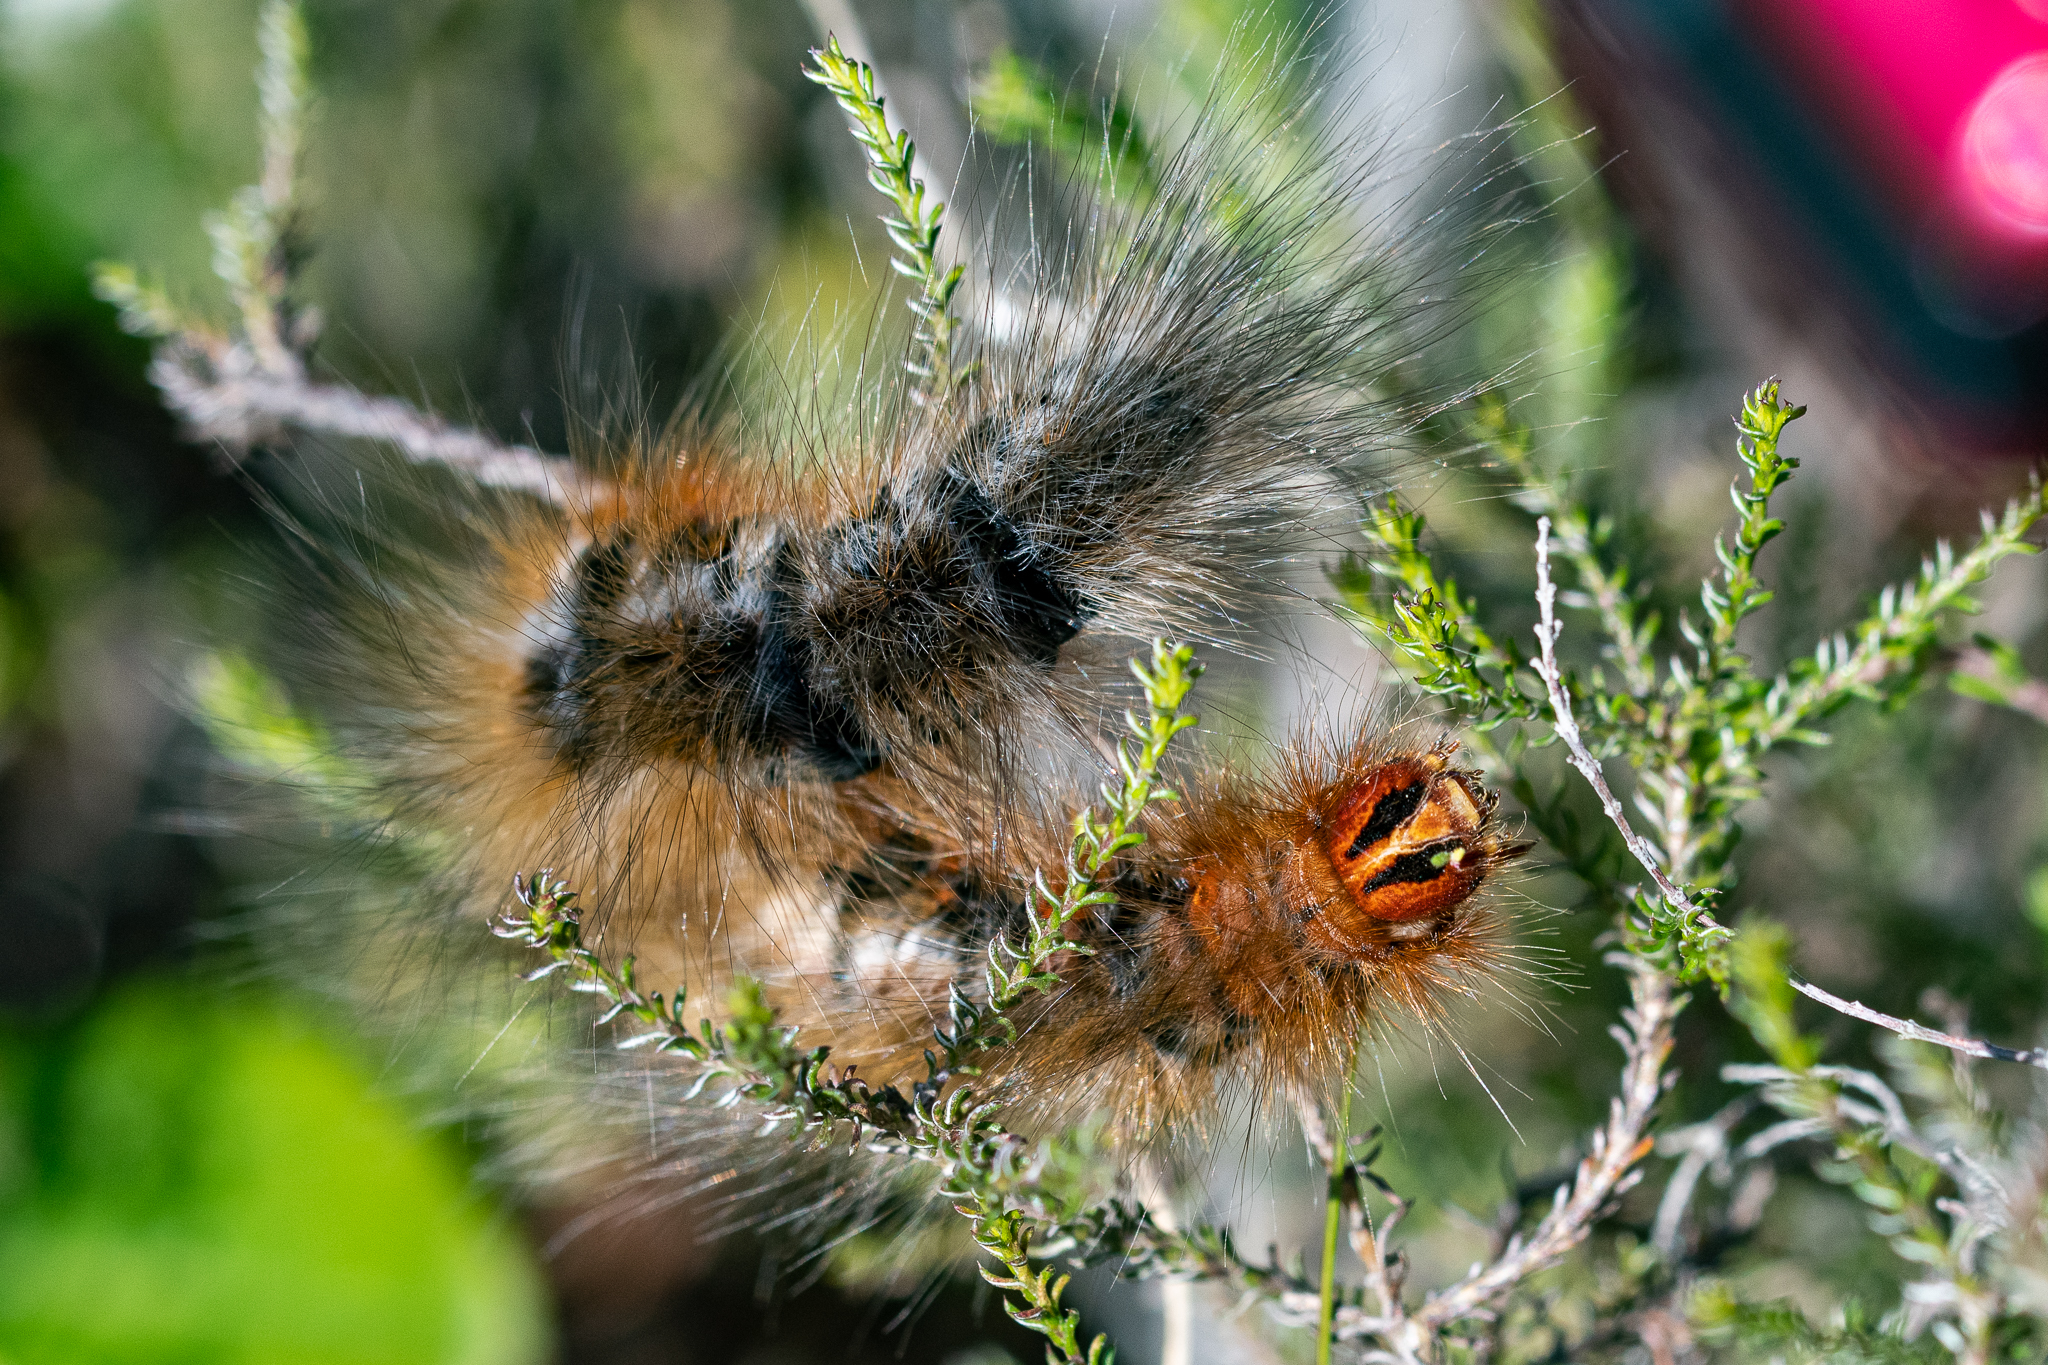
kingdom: Animalia
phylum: Arthropoda
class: Insecta
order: Lepidoptera
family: Lasiocampidae
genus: Mesocelis
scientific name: Mesocelis monticola
